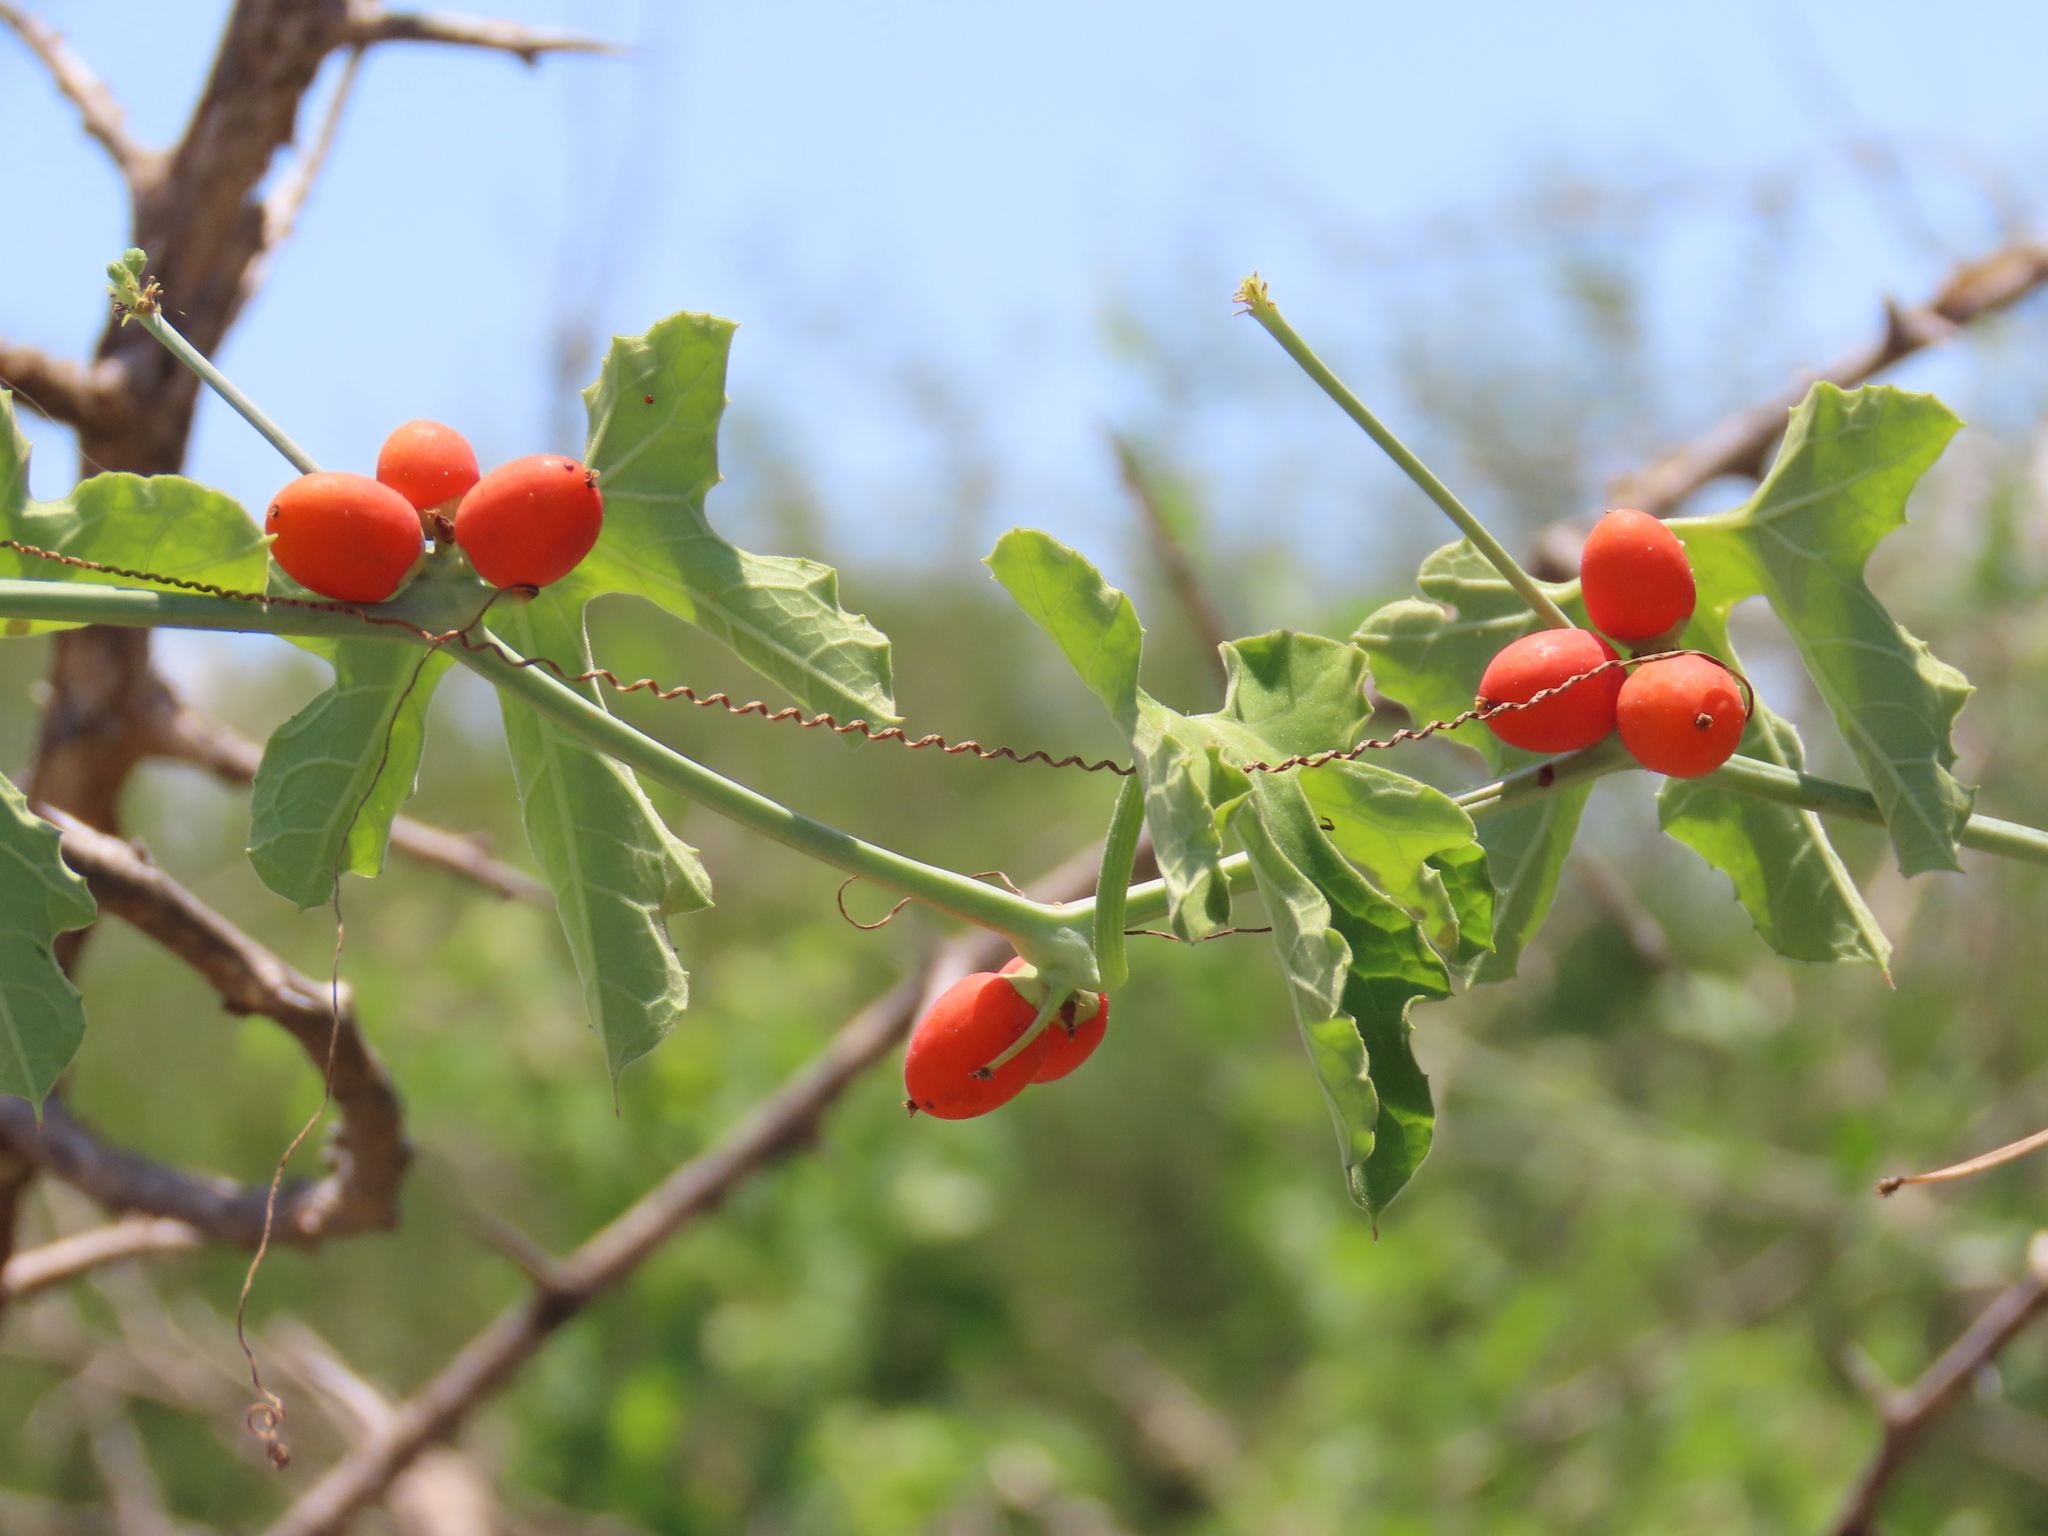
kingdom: Plantae
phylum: Tracheophyta
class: Magnoliopsida
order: Cucurbitales
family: Cucurbitaceae
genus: Corallocarpus
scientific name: Corallocarpus bainesii
